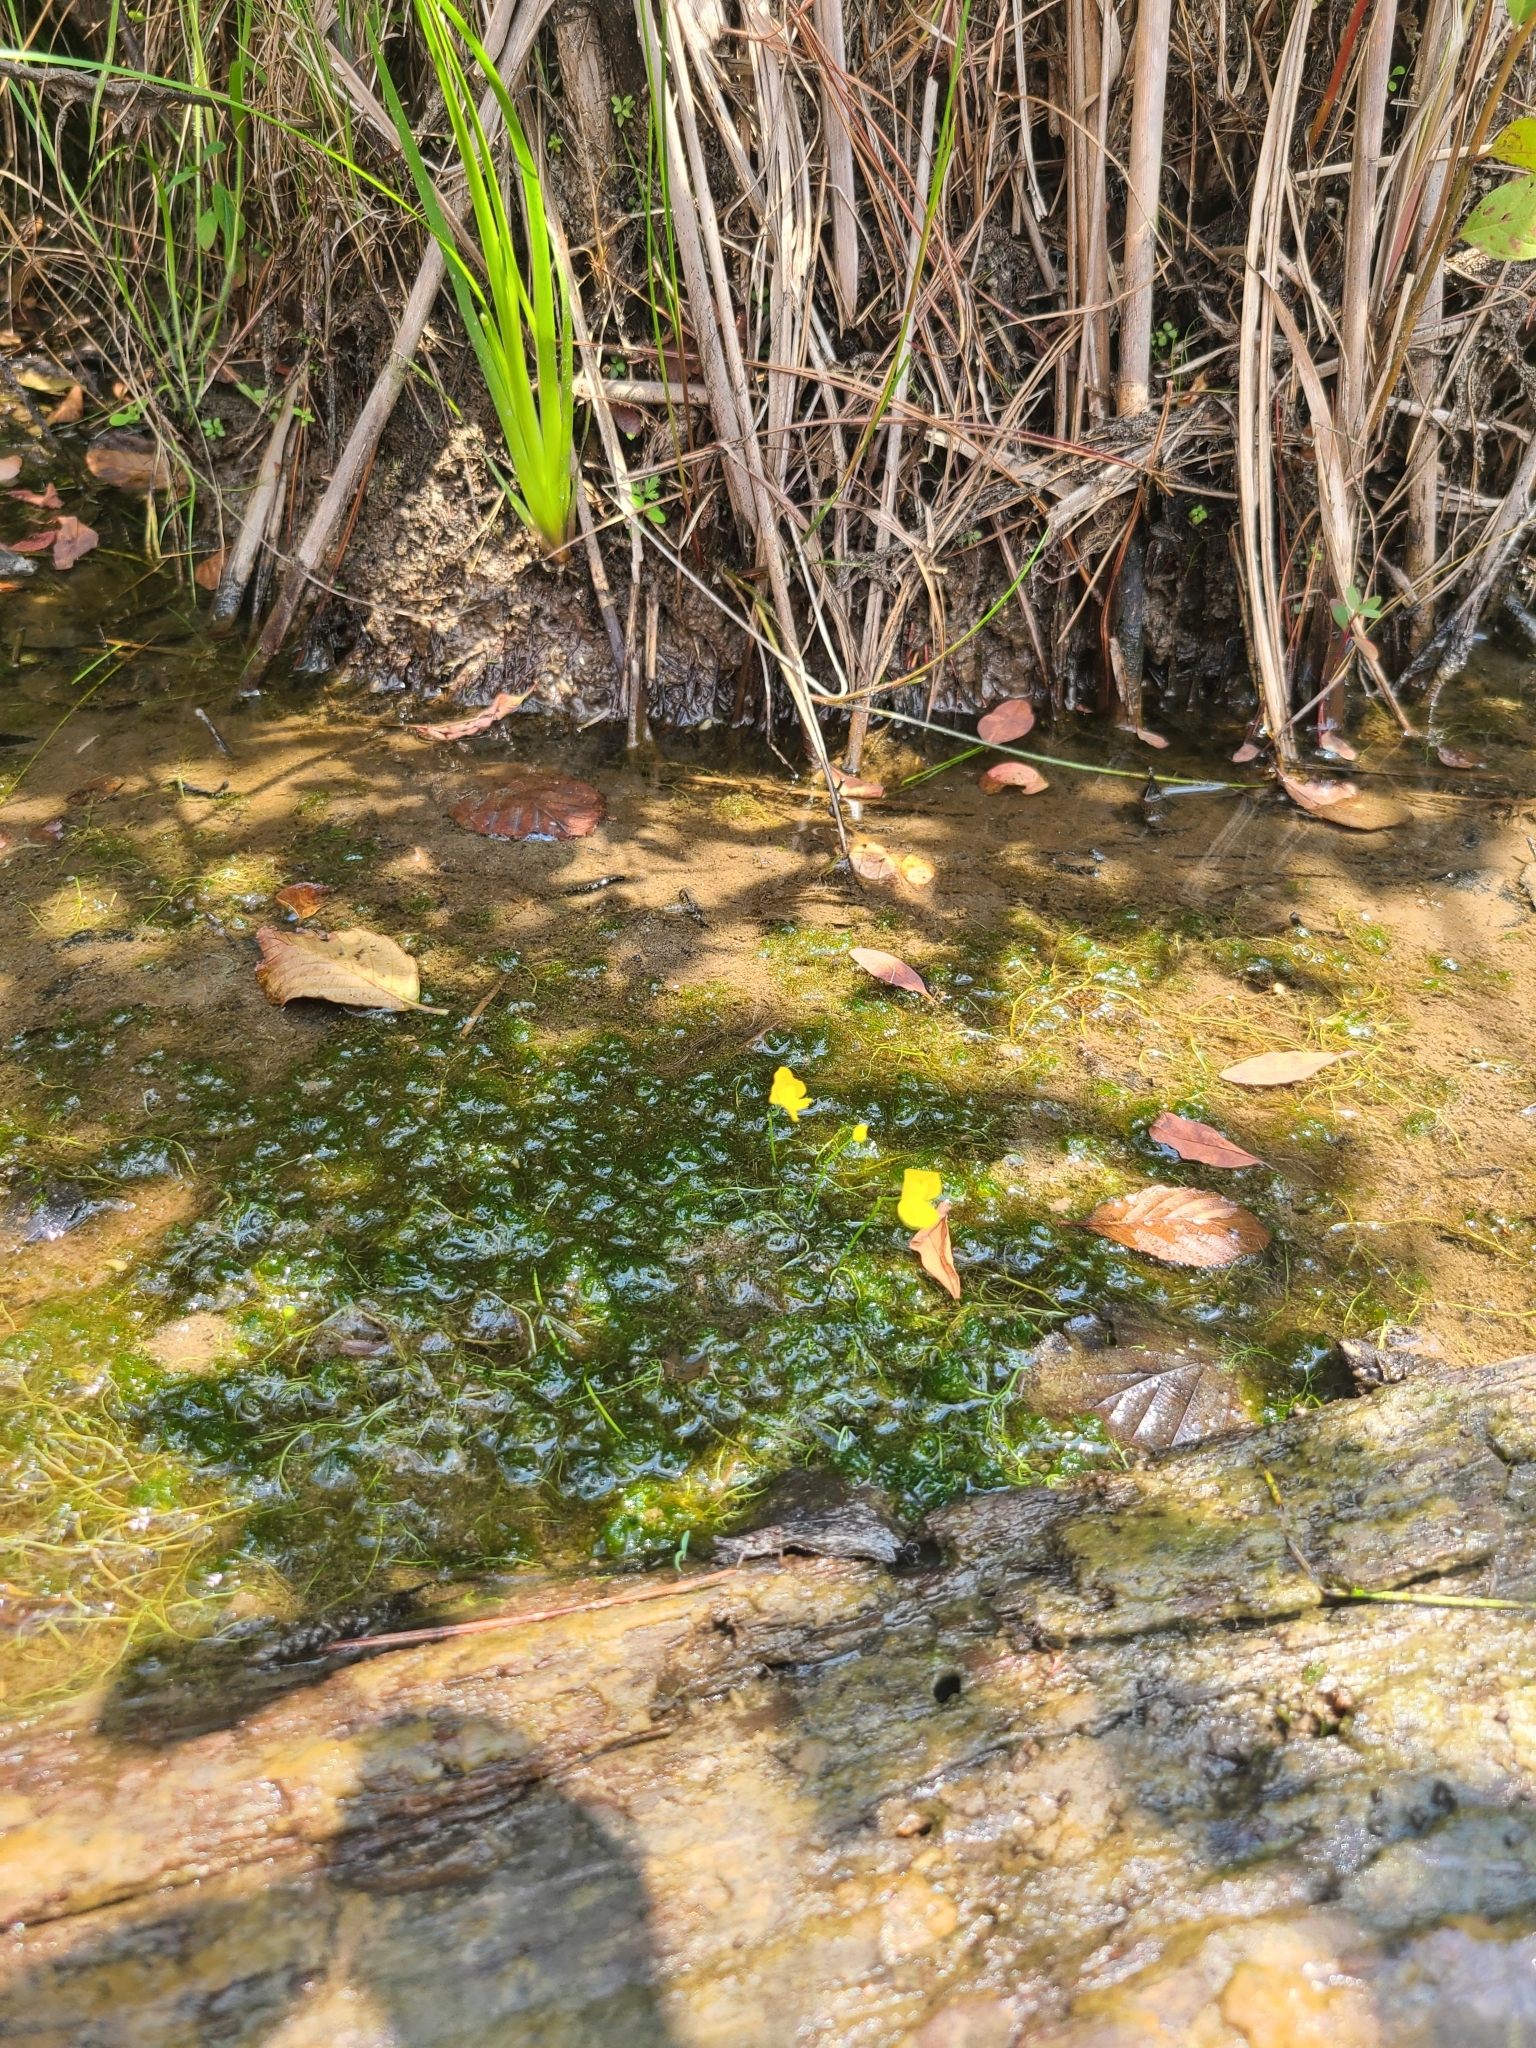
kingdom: Plantae
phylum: Tracheophyta
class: Magnoliopsida
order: Lamiales
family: Lentibulariaceae
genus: Utricularia
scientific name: Utricularia gibba
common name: Humped bladderwort
